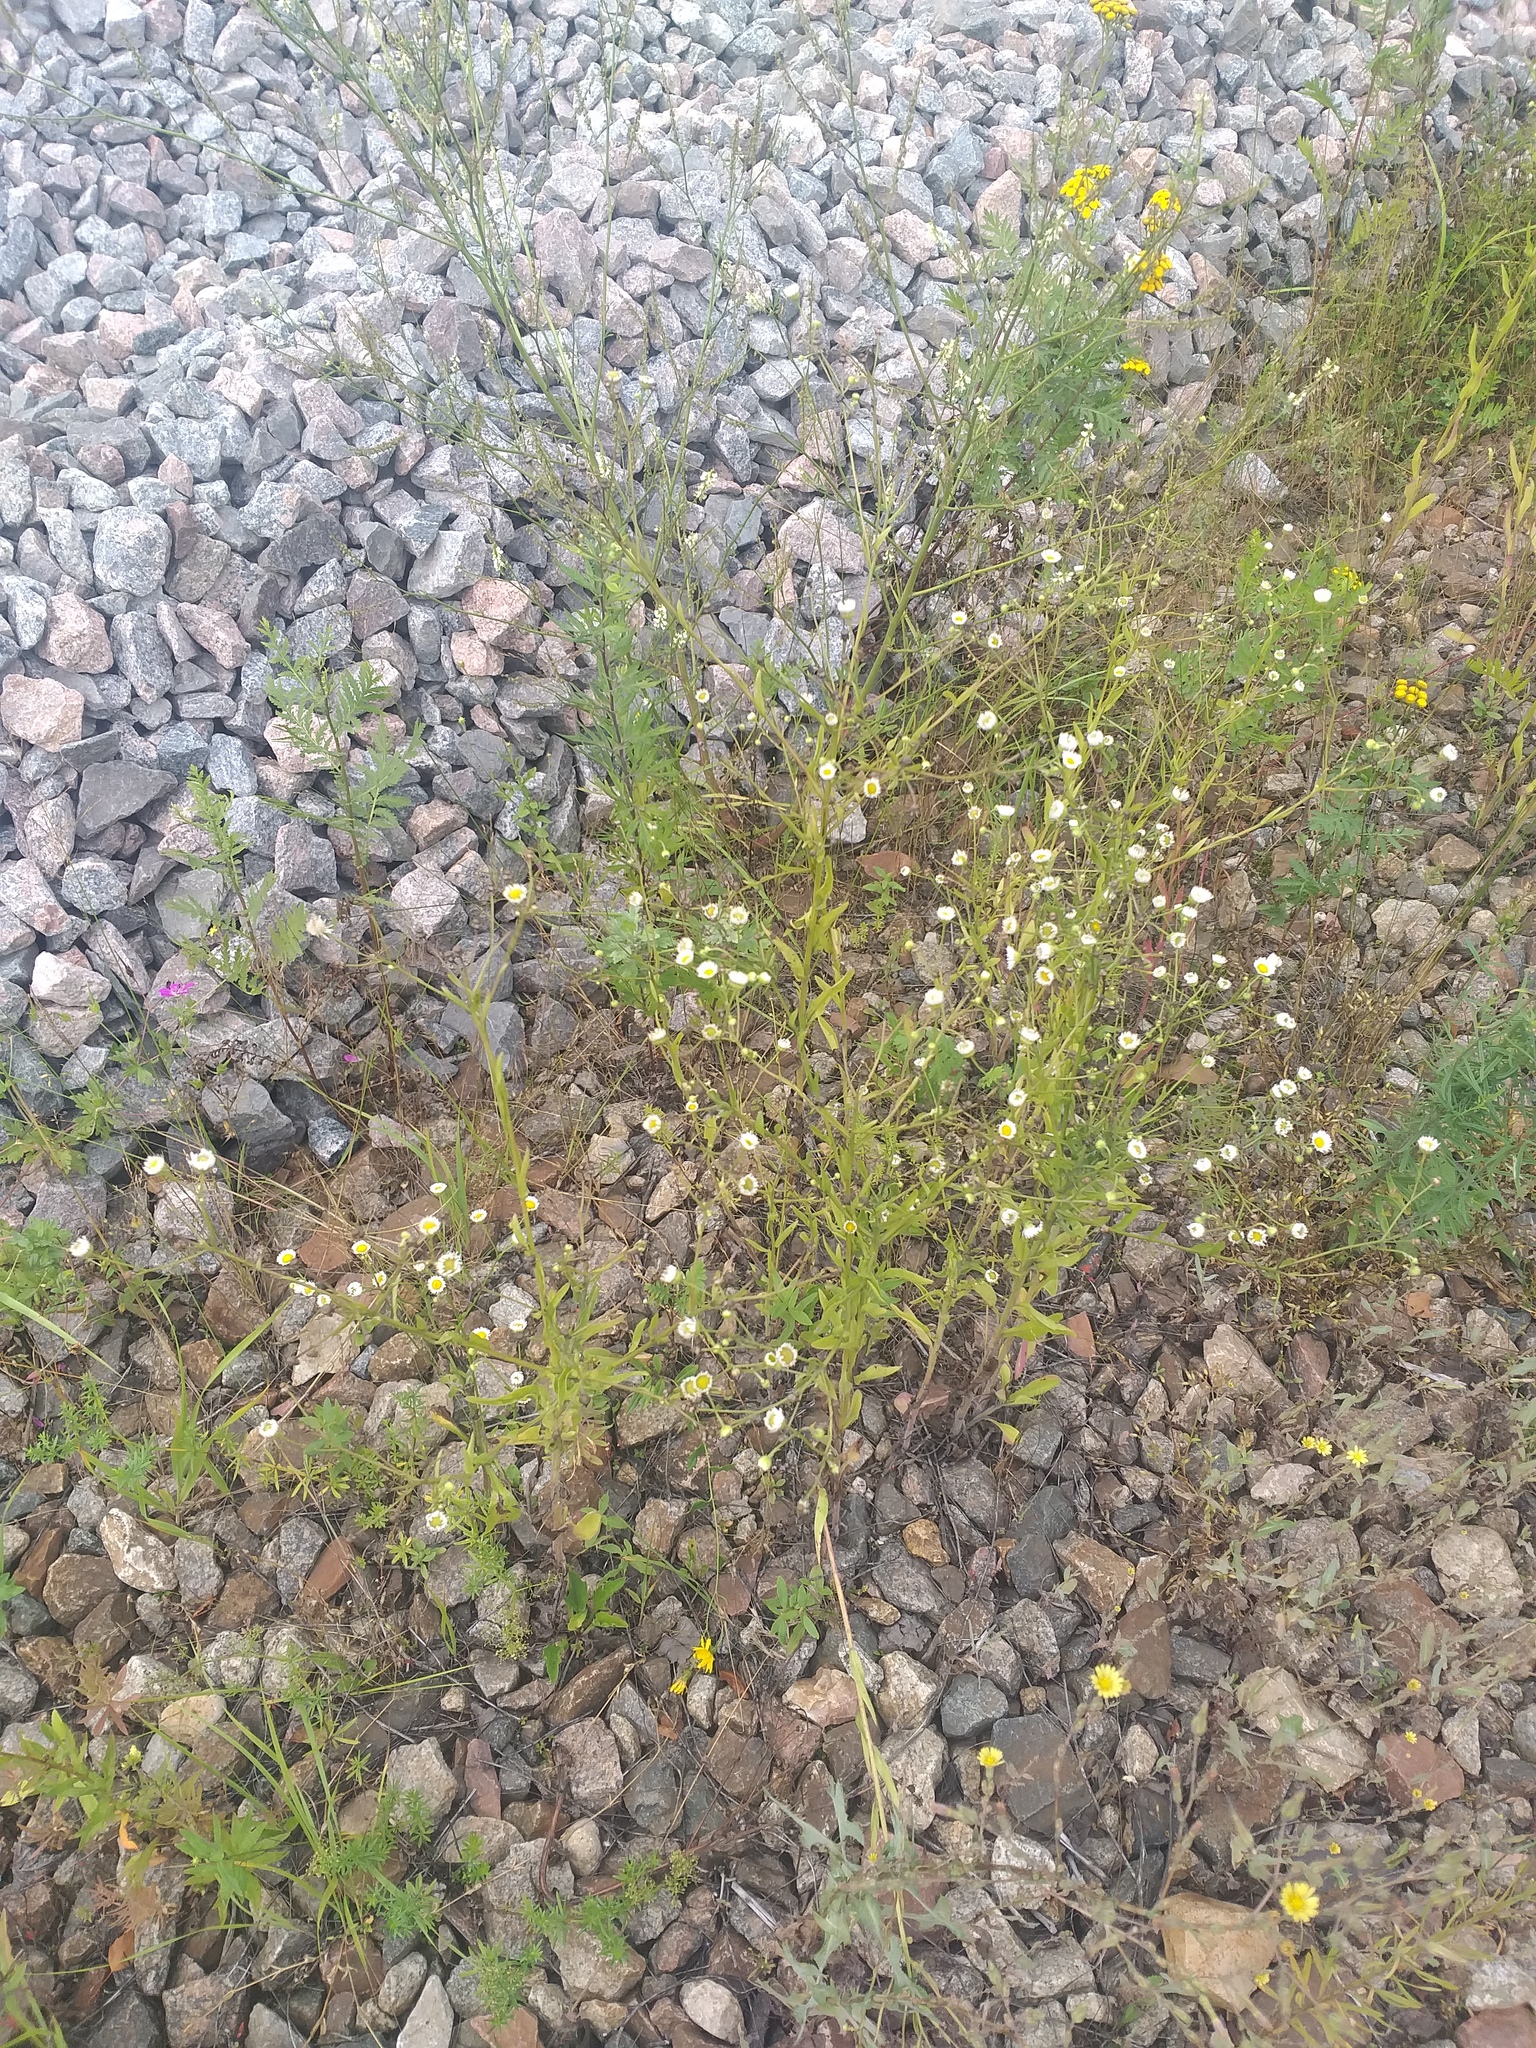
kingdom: Plantae
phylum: Tracheophyta
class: Magnoliopsida
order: Asterales
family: Asteraceae
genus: Erigeron
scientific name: Erigeron annuus
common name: Tall fleabane
